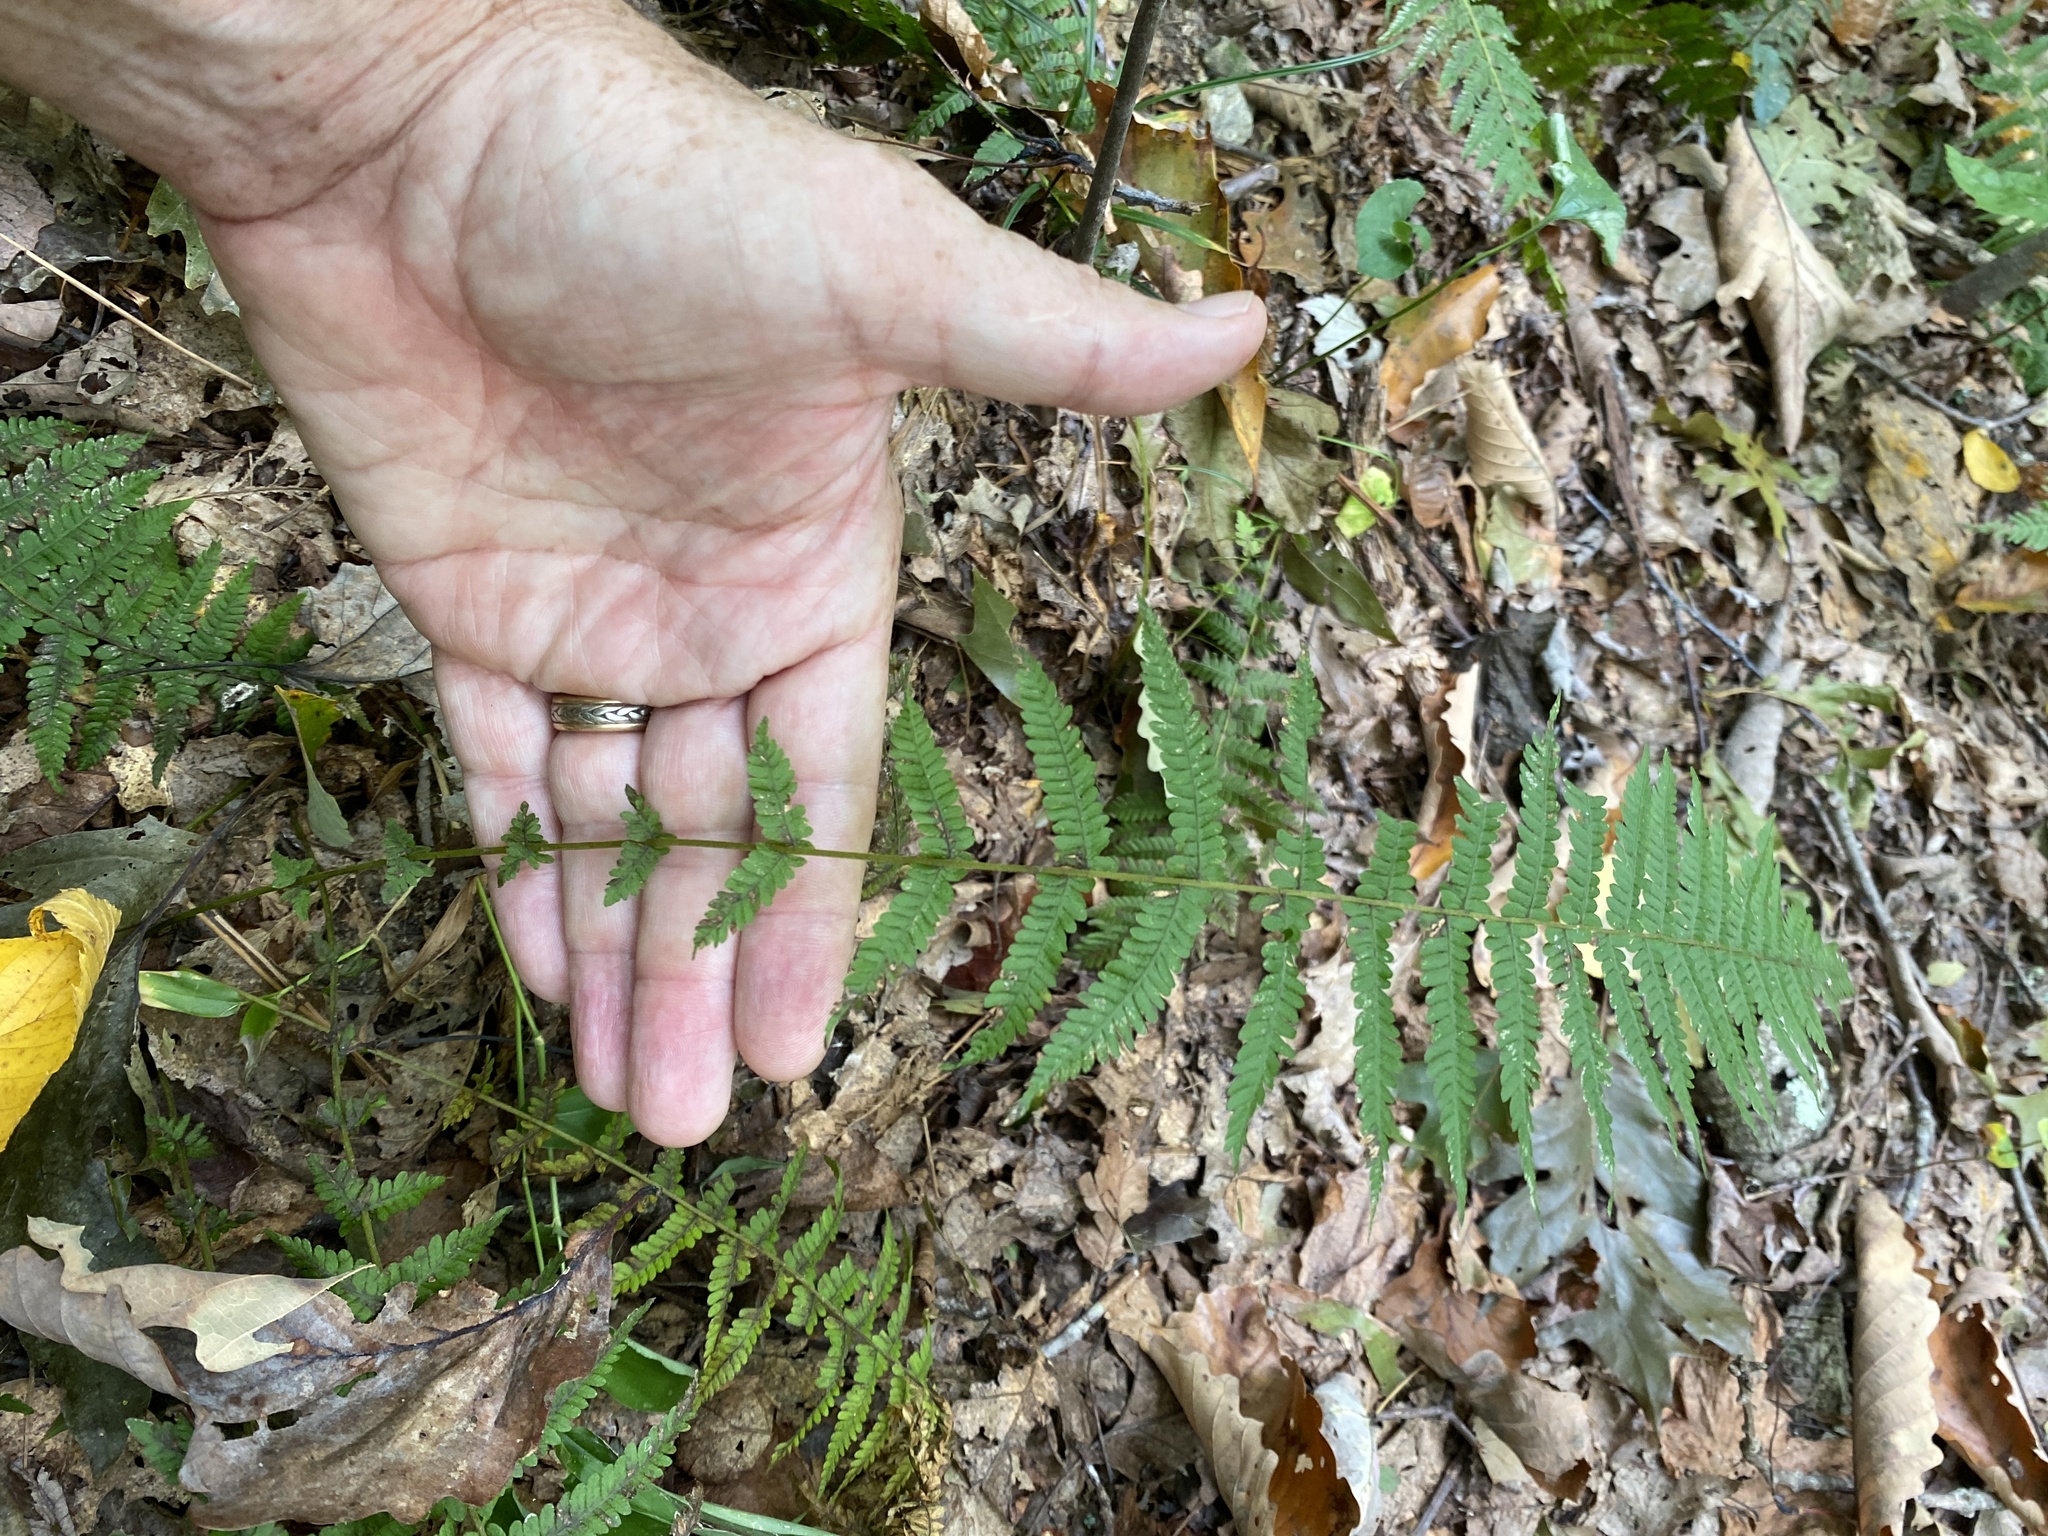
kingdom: Plantae
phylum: Tracheophyta
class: Polypodiopsida
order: Polypodiales
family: Thelypteridaceae
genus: Amauropelta
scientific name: Amauropelta noveboracensis
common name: New york fern
